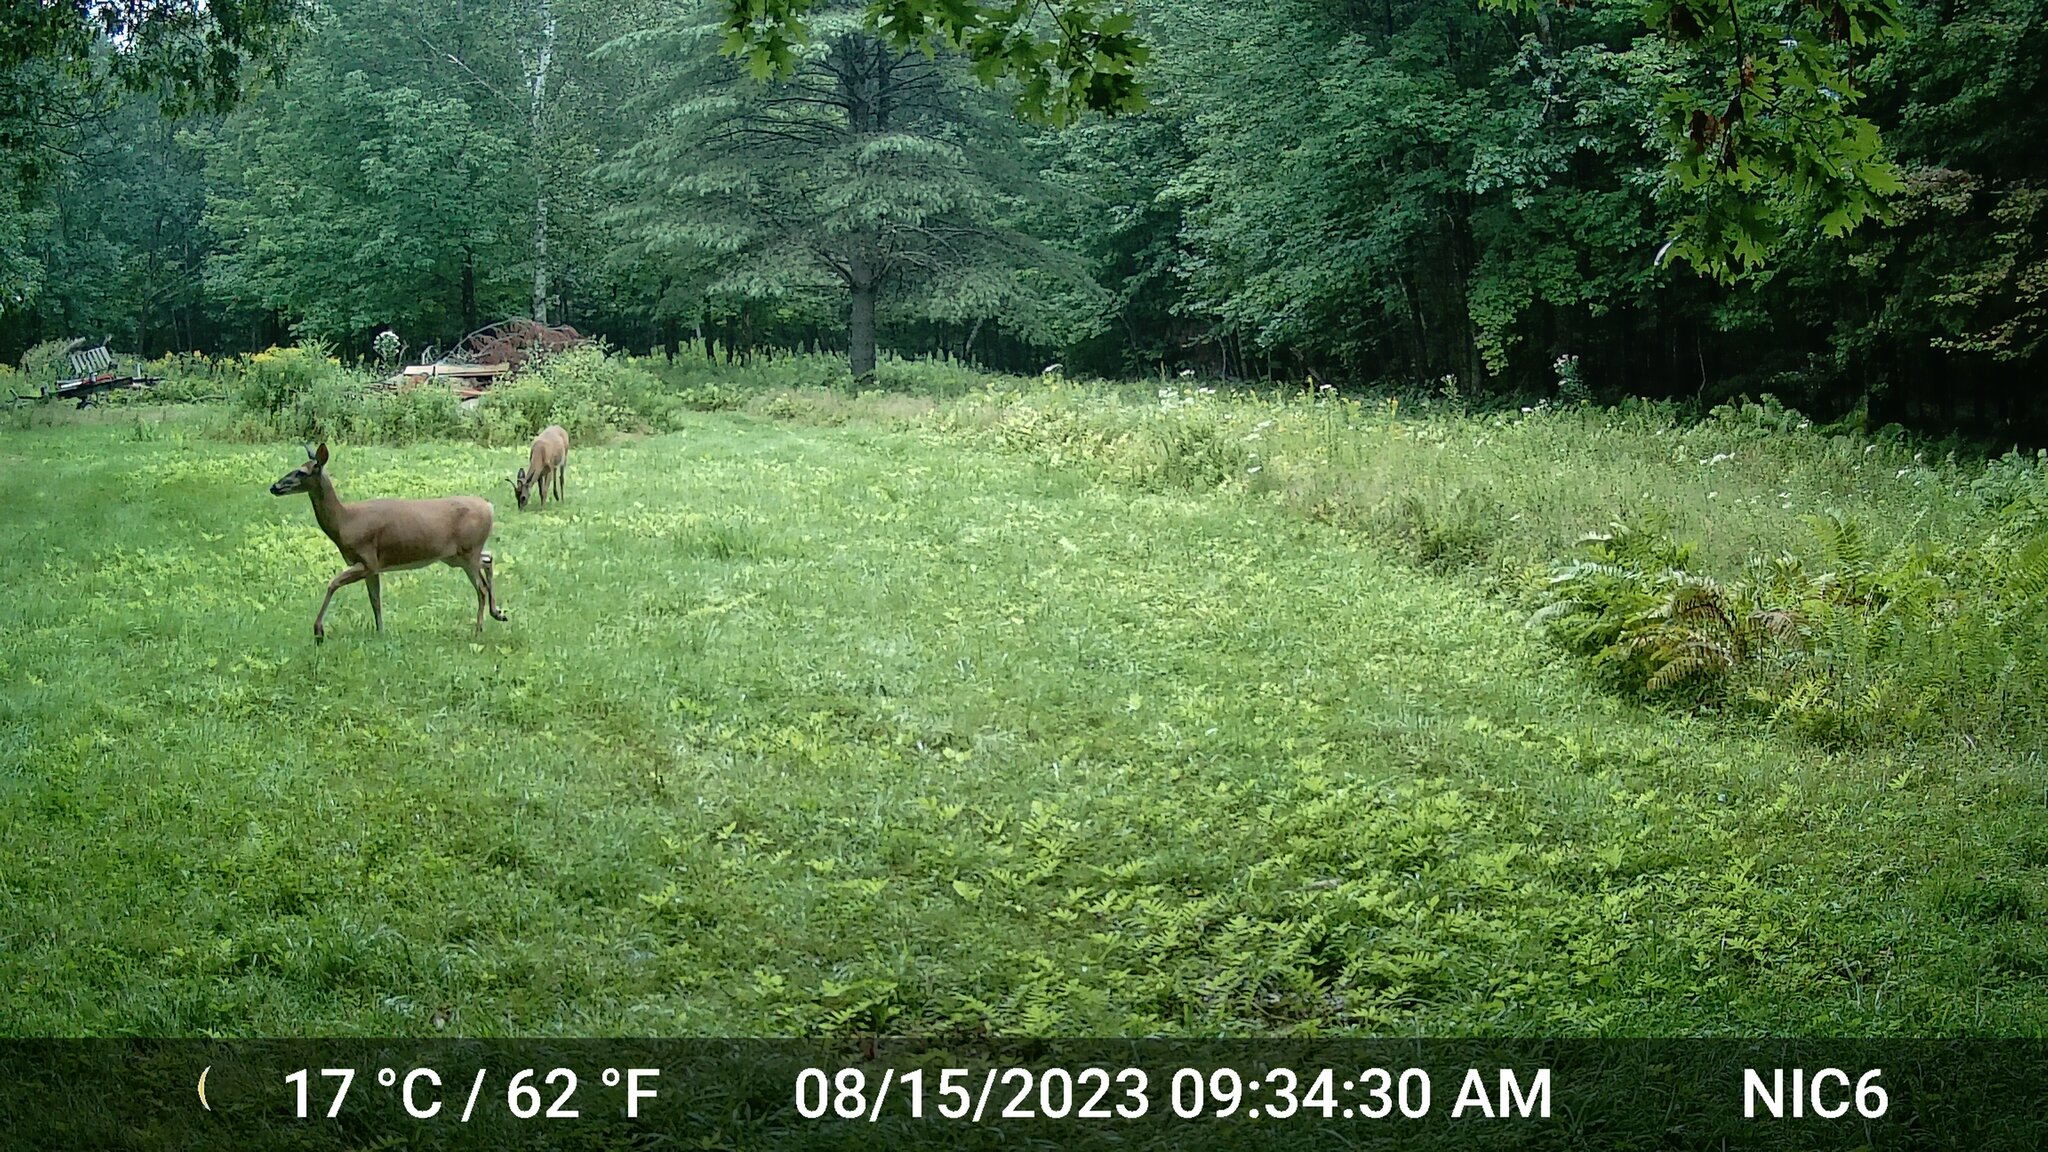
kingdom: Animalia
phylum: Chordata
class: Mammalia
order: Artiodactyla
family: Cervidae
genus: Odocoileus
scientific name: Odocoileus virginianus
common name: White-tailed deer
